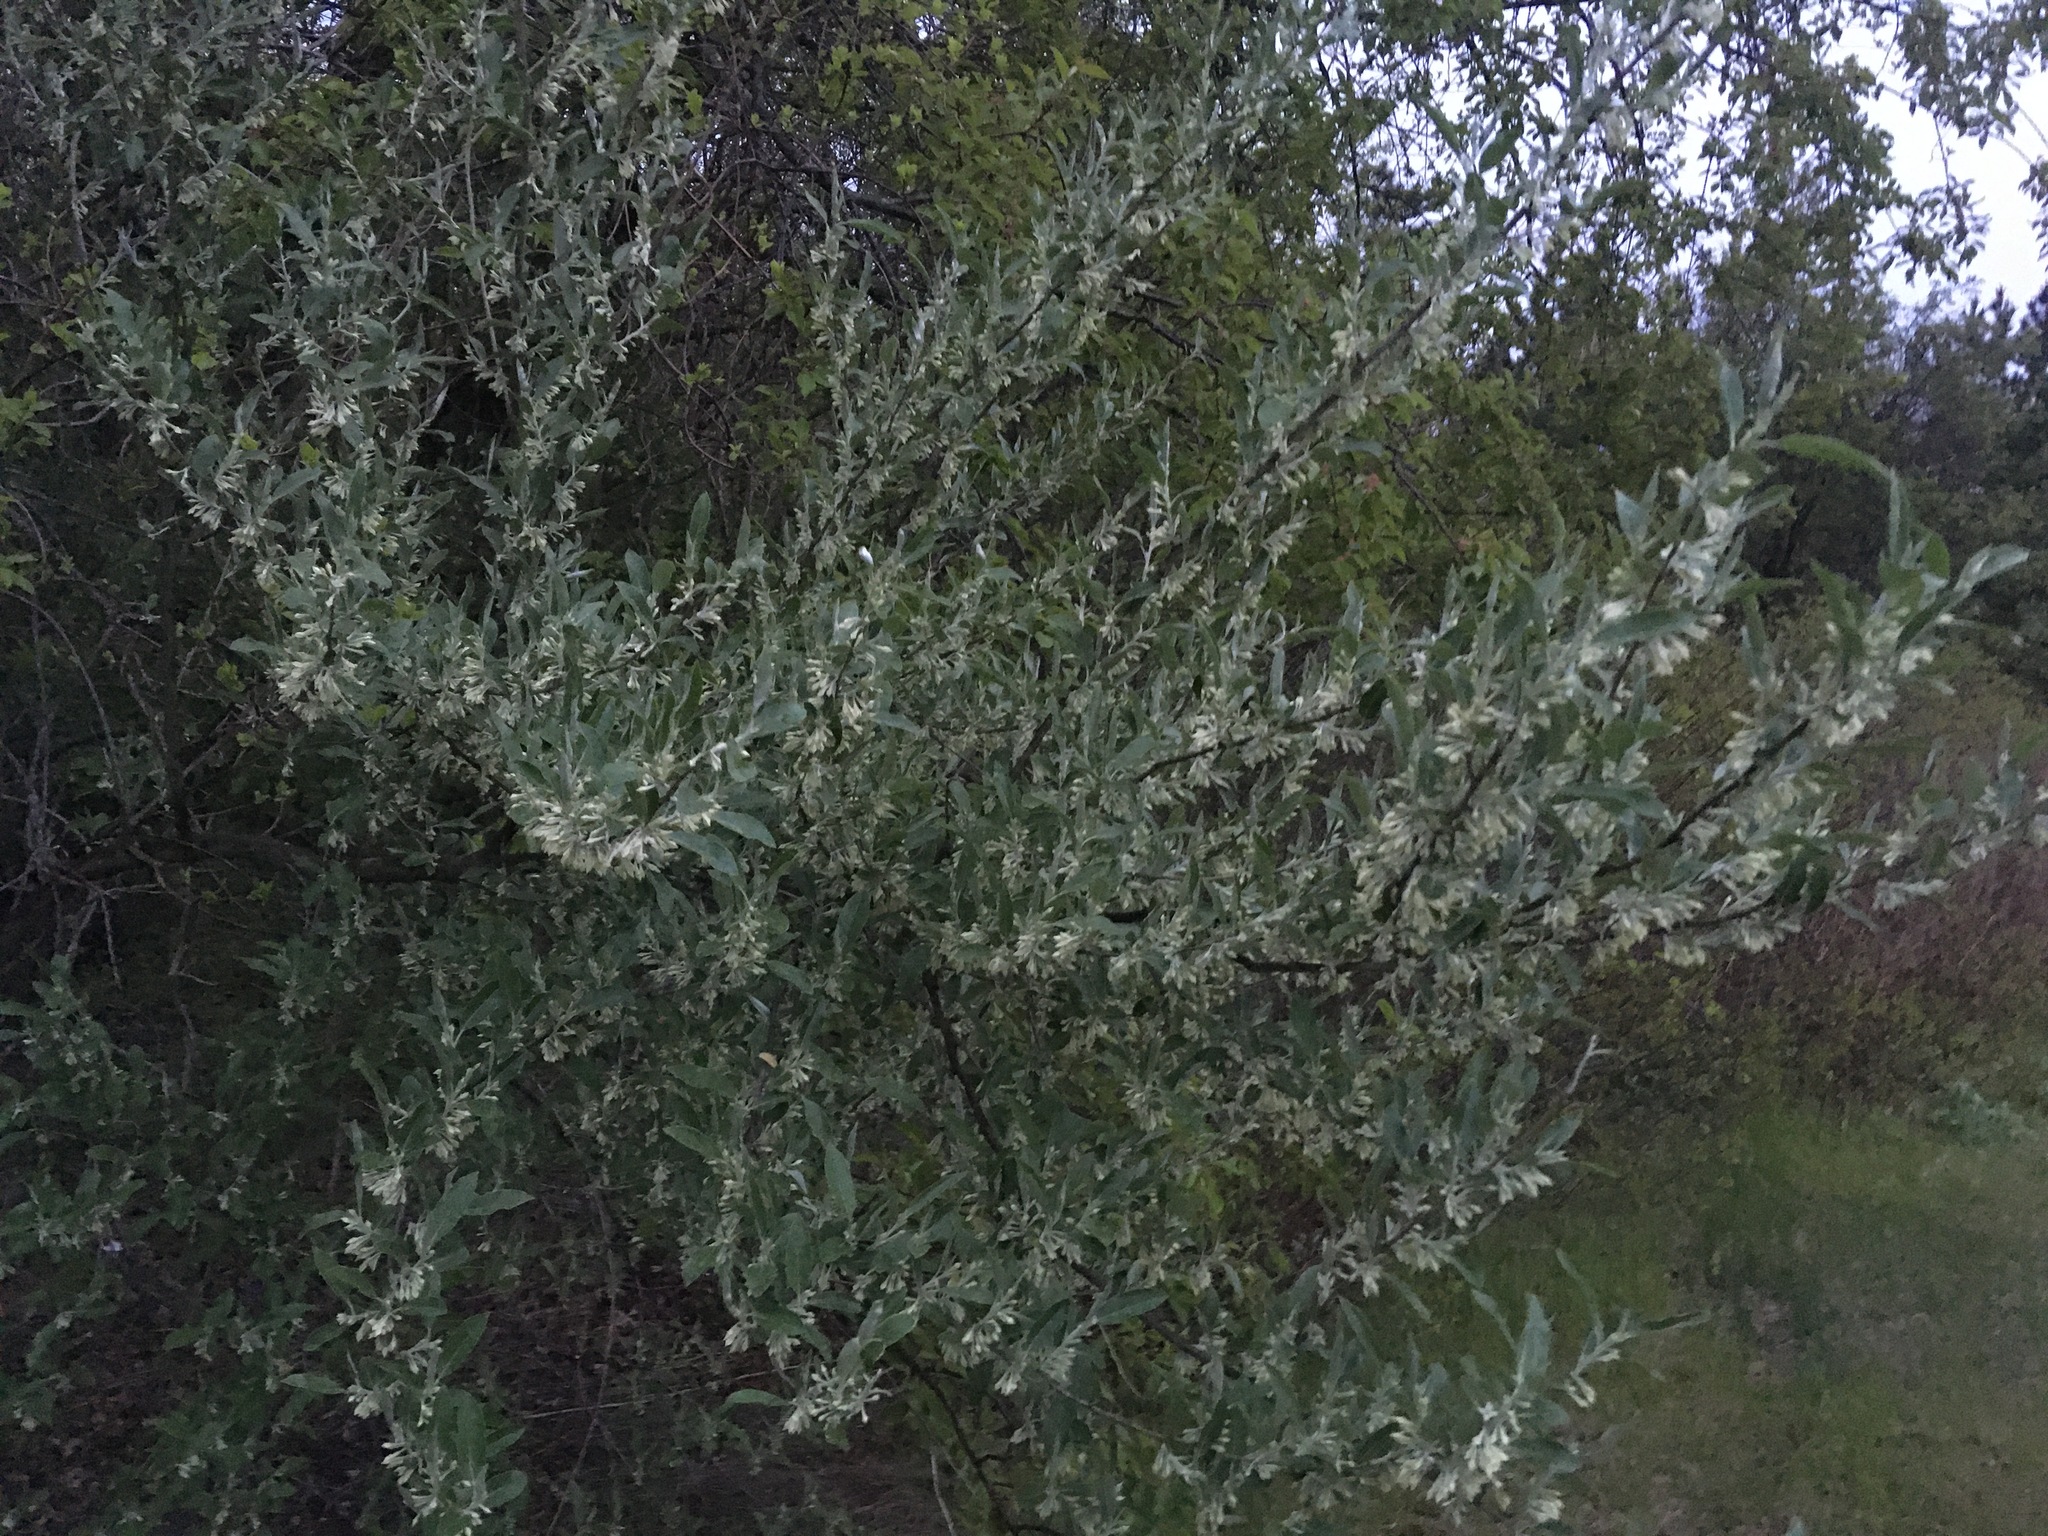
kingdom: Plantae
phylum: Tracheophyta
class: Magnoliopsida
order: Rosales
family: Elaeagnaceae
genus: Elaeagnus
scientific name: Elaeagnus umbellata
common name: Autumn olive
